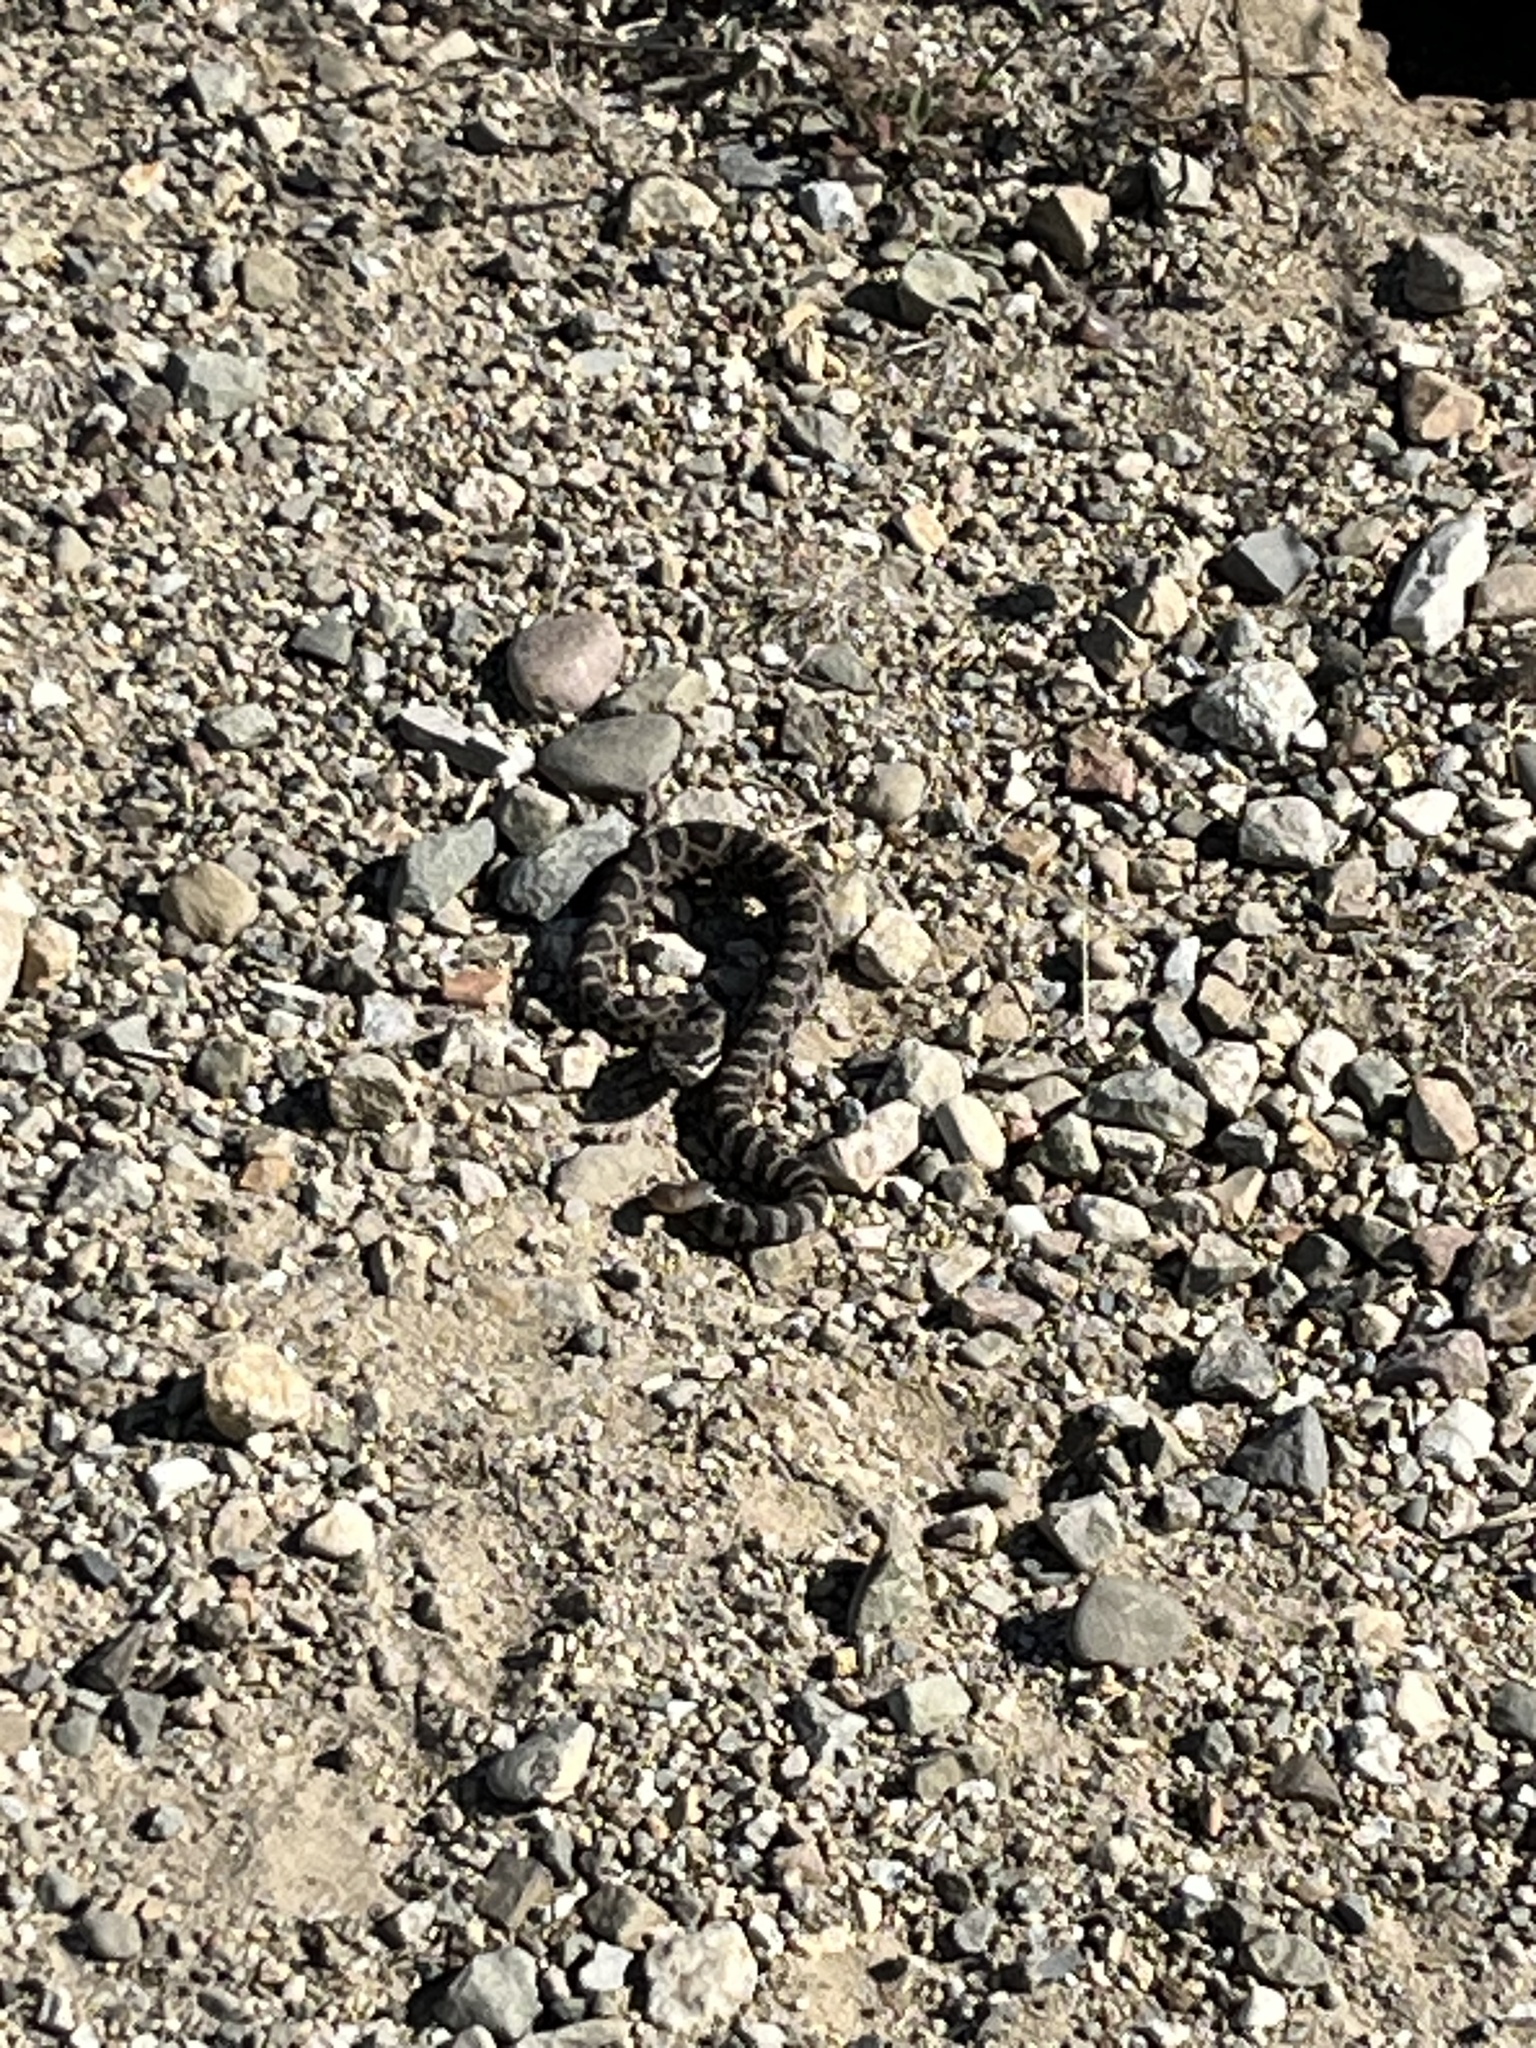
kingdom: Animalia
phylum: Chordata
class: Squamata
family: Viperidae
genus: Crotalus
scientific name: Crotalus oreganus
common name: Abyssus
